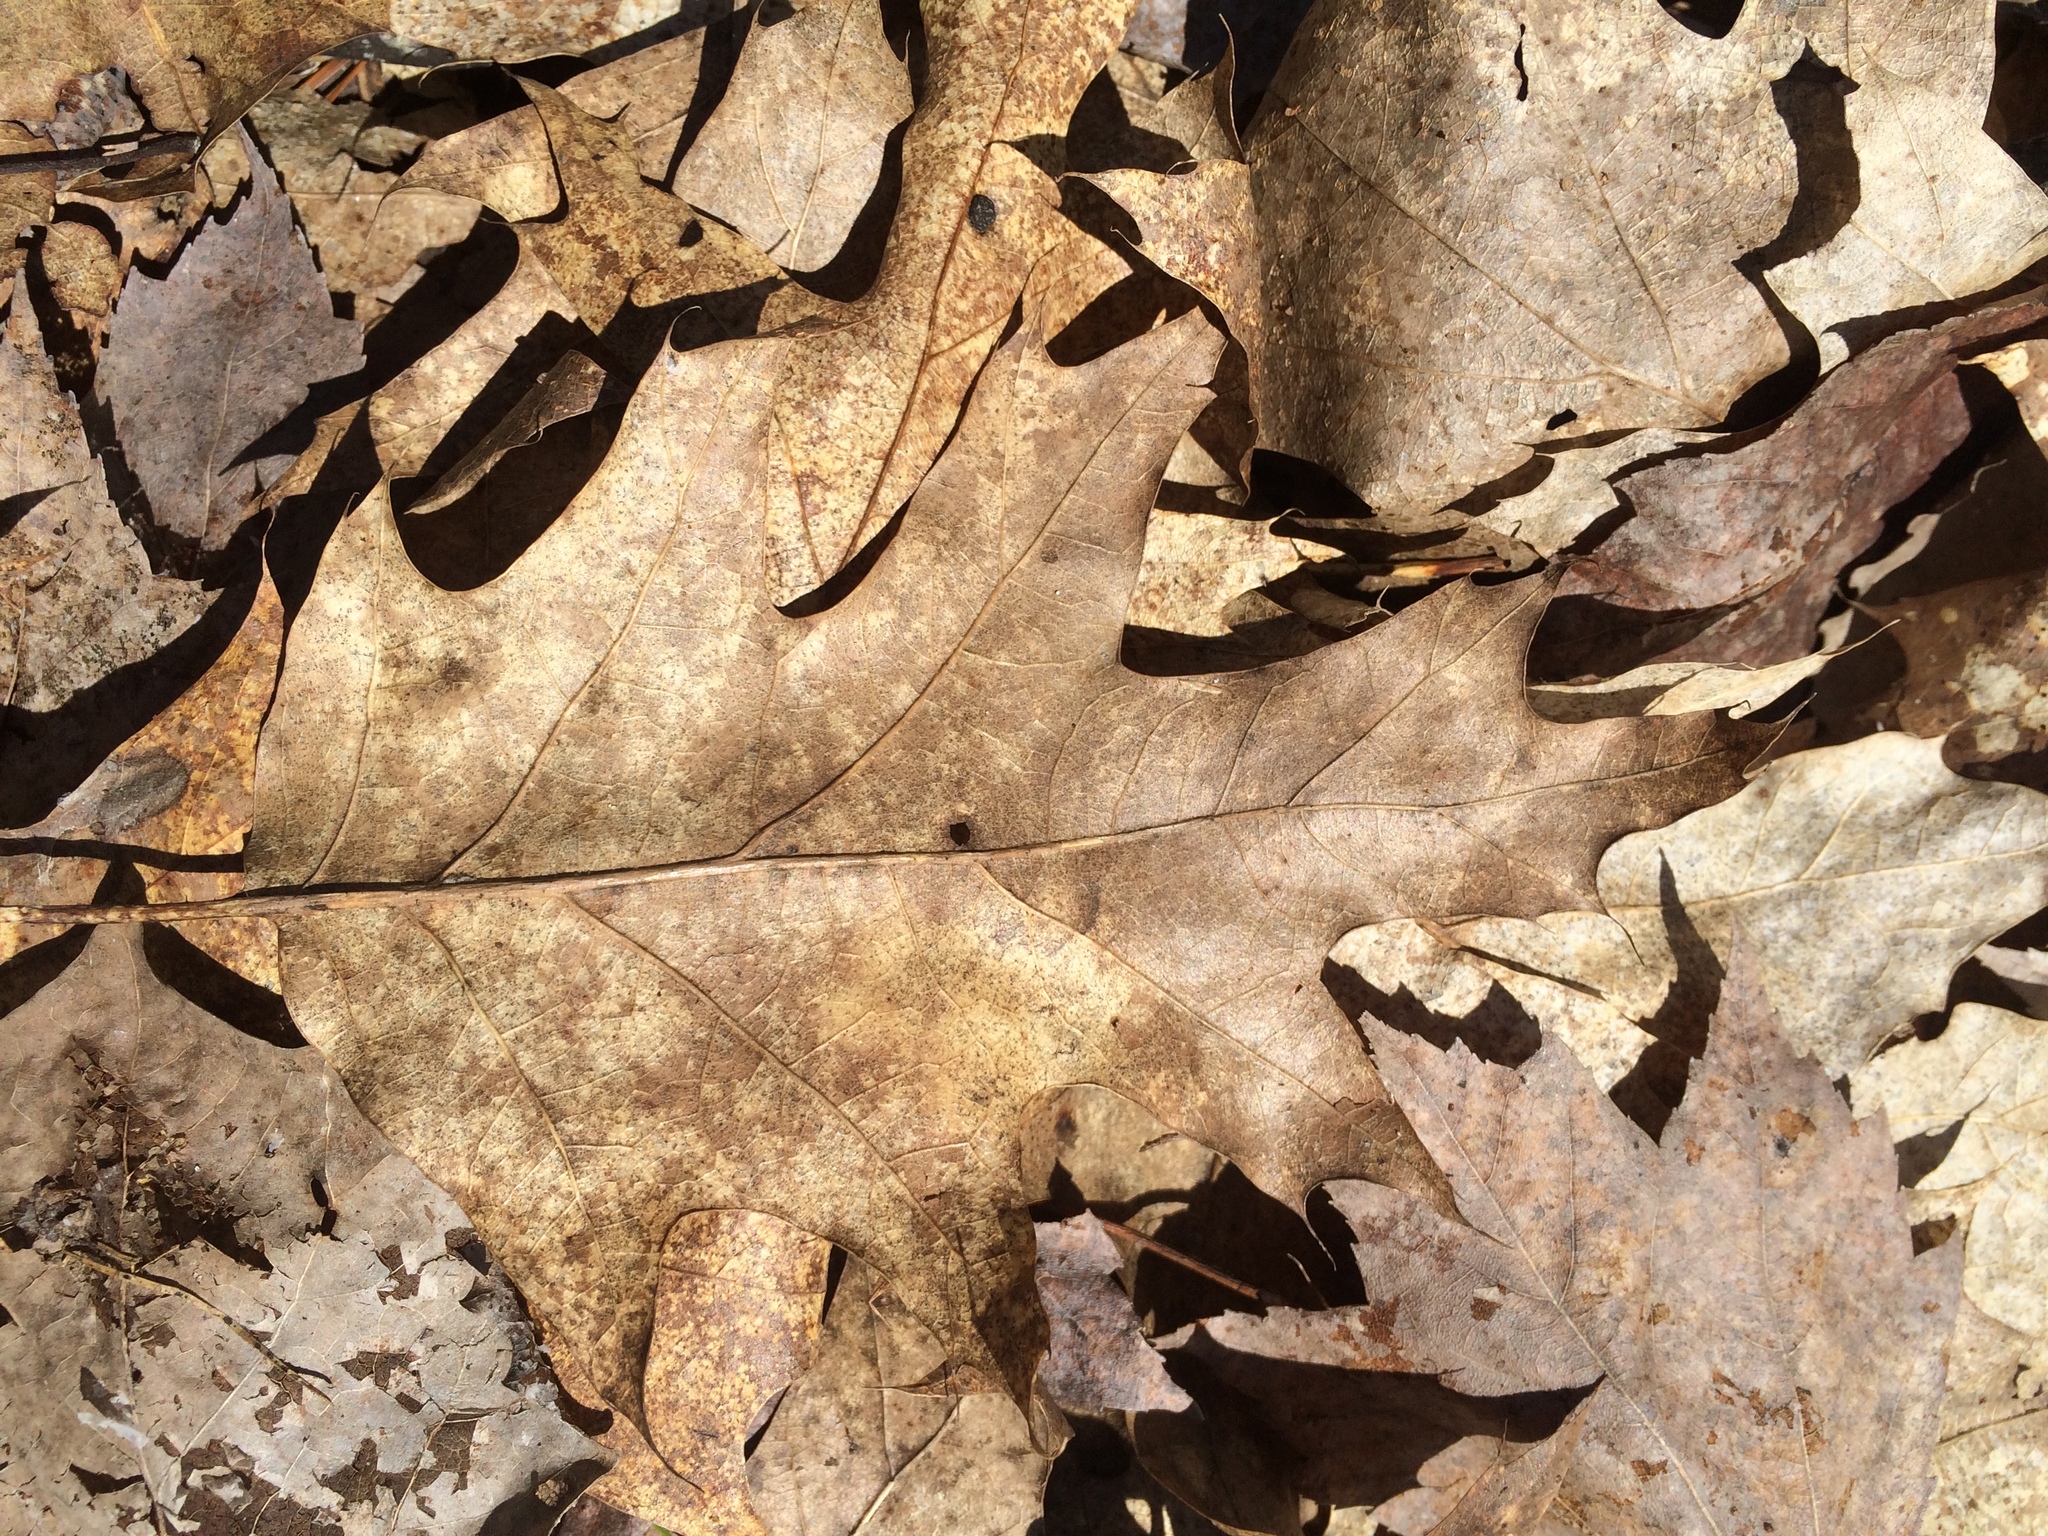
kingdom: Plantae
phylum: Tracheophyta
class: Magnoliopsida
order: Fagales
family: Fagaceae
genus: Quercus
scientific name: Quercus rubra
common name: Red oak
